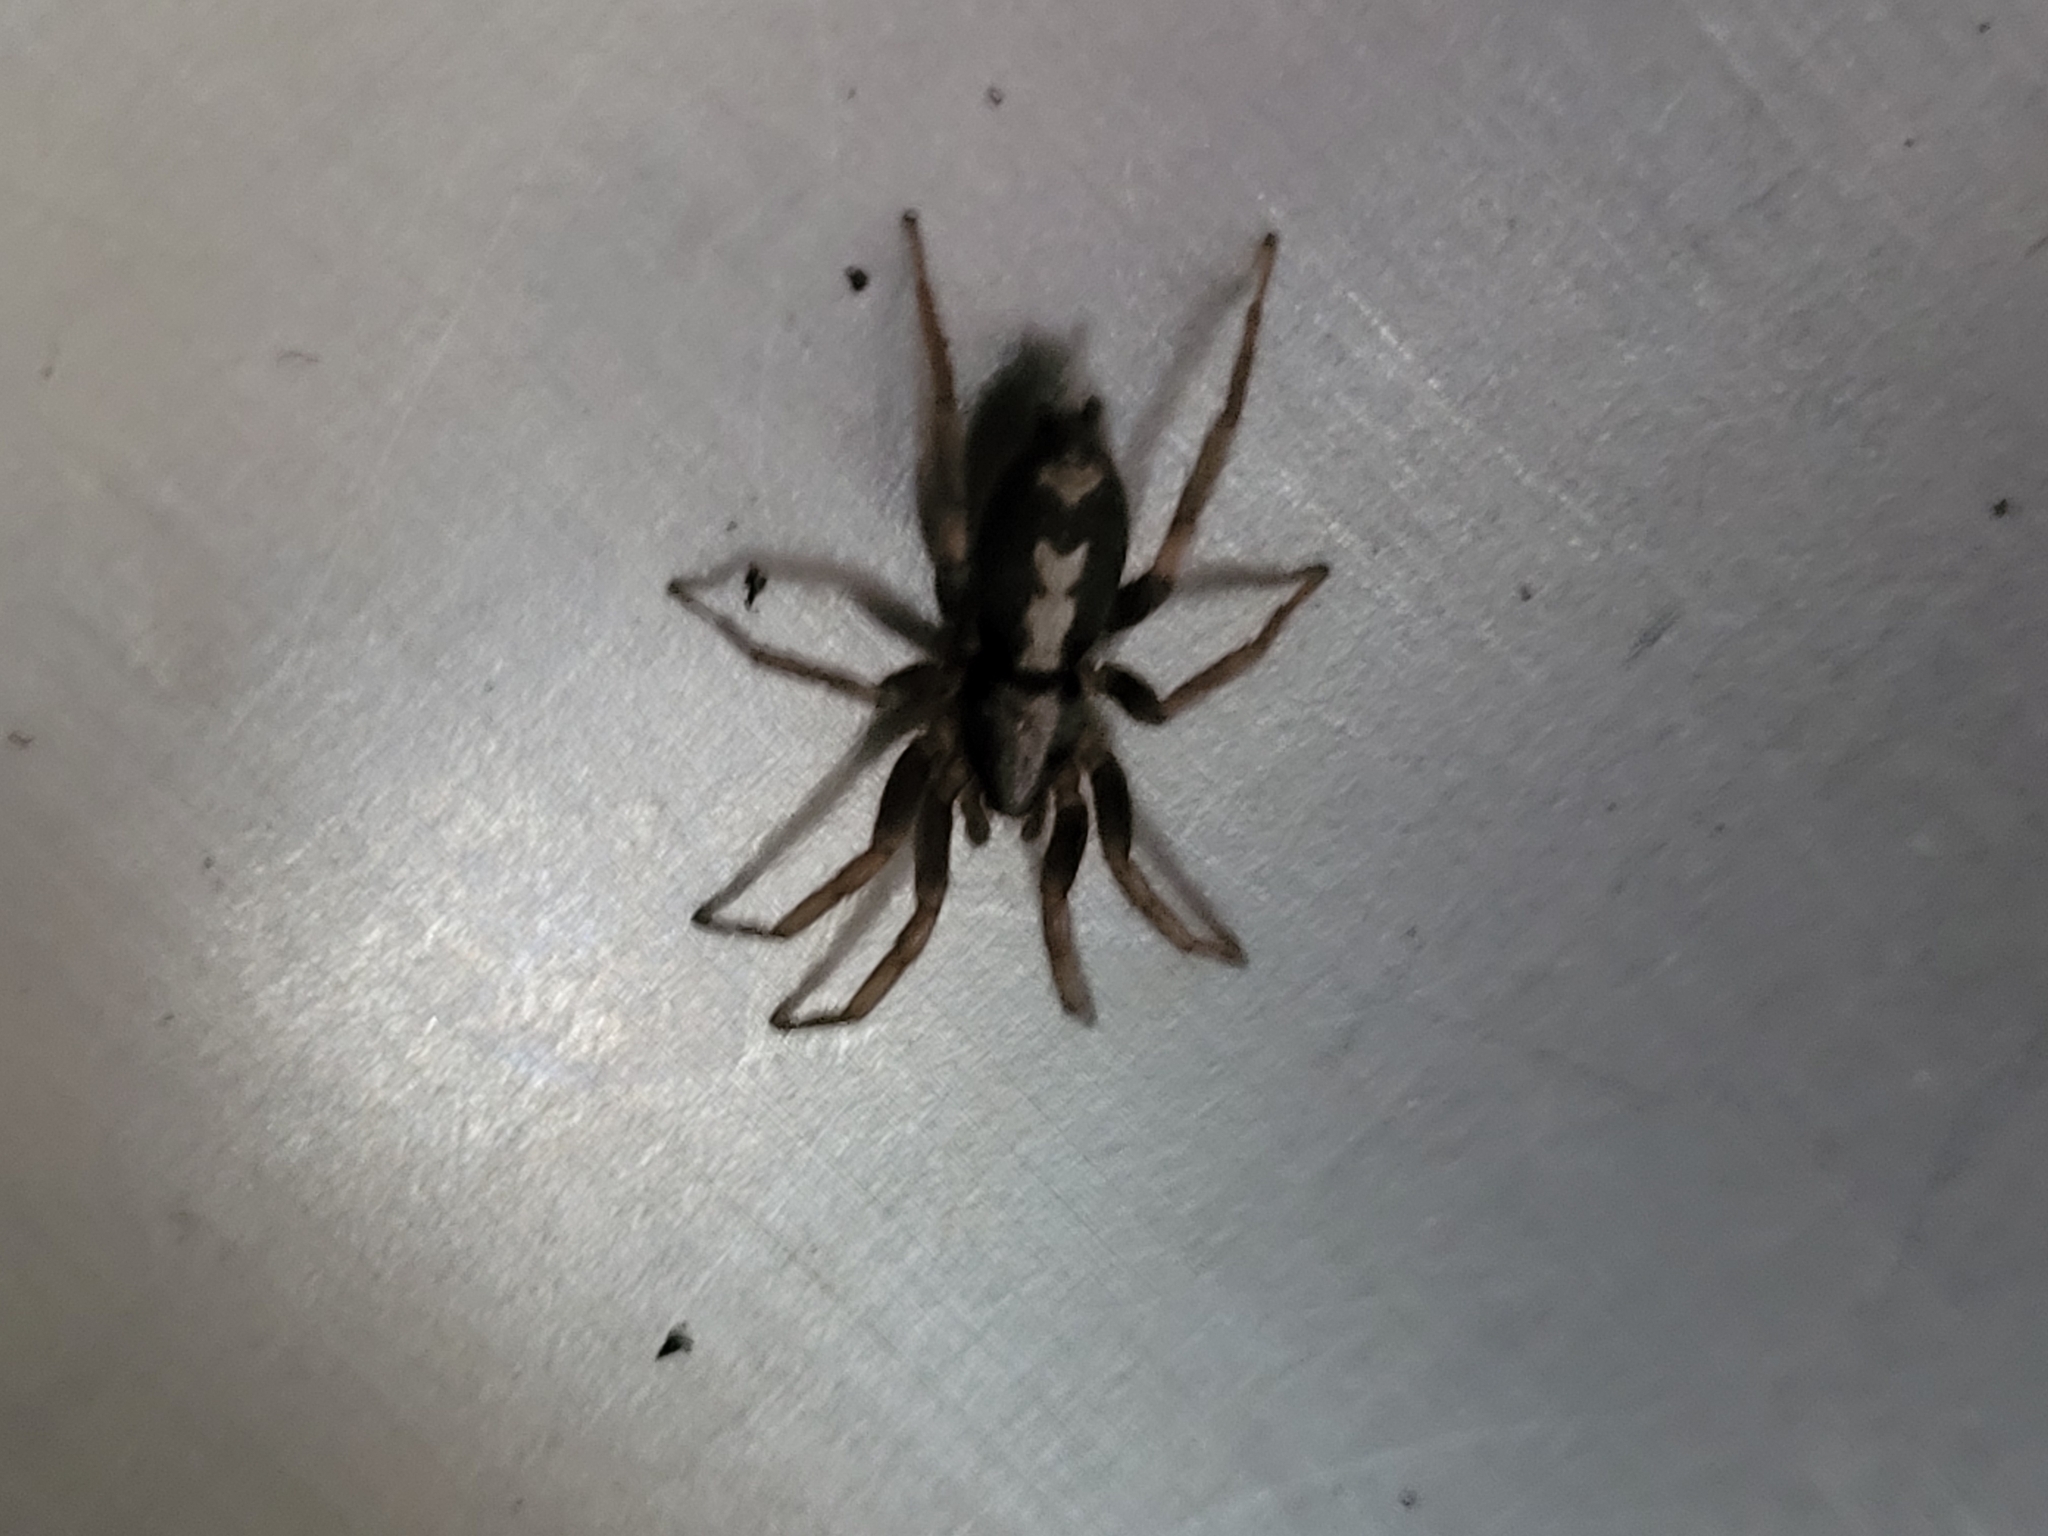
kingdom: Animalia
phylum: Arthropoda
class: Arachnida
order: Araneae
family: Gnaphosidae
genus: Herpyllus
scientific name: Herpyllus ecclesiasticus
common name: Eastern parson spider
